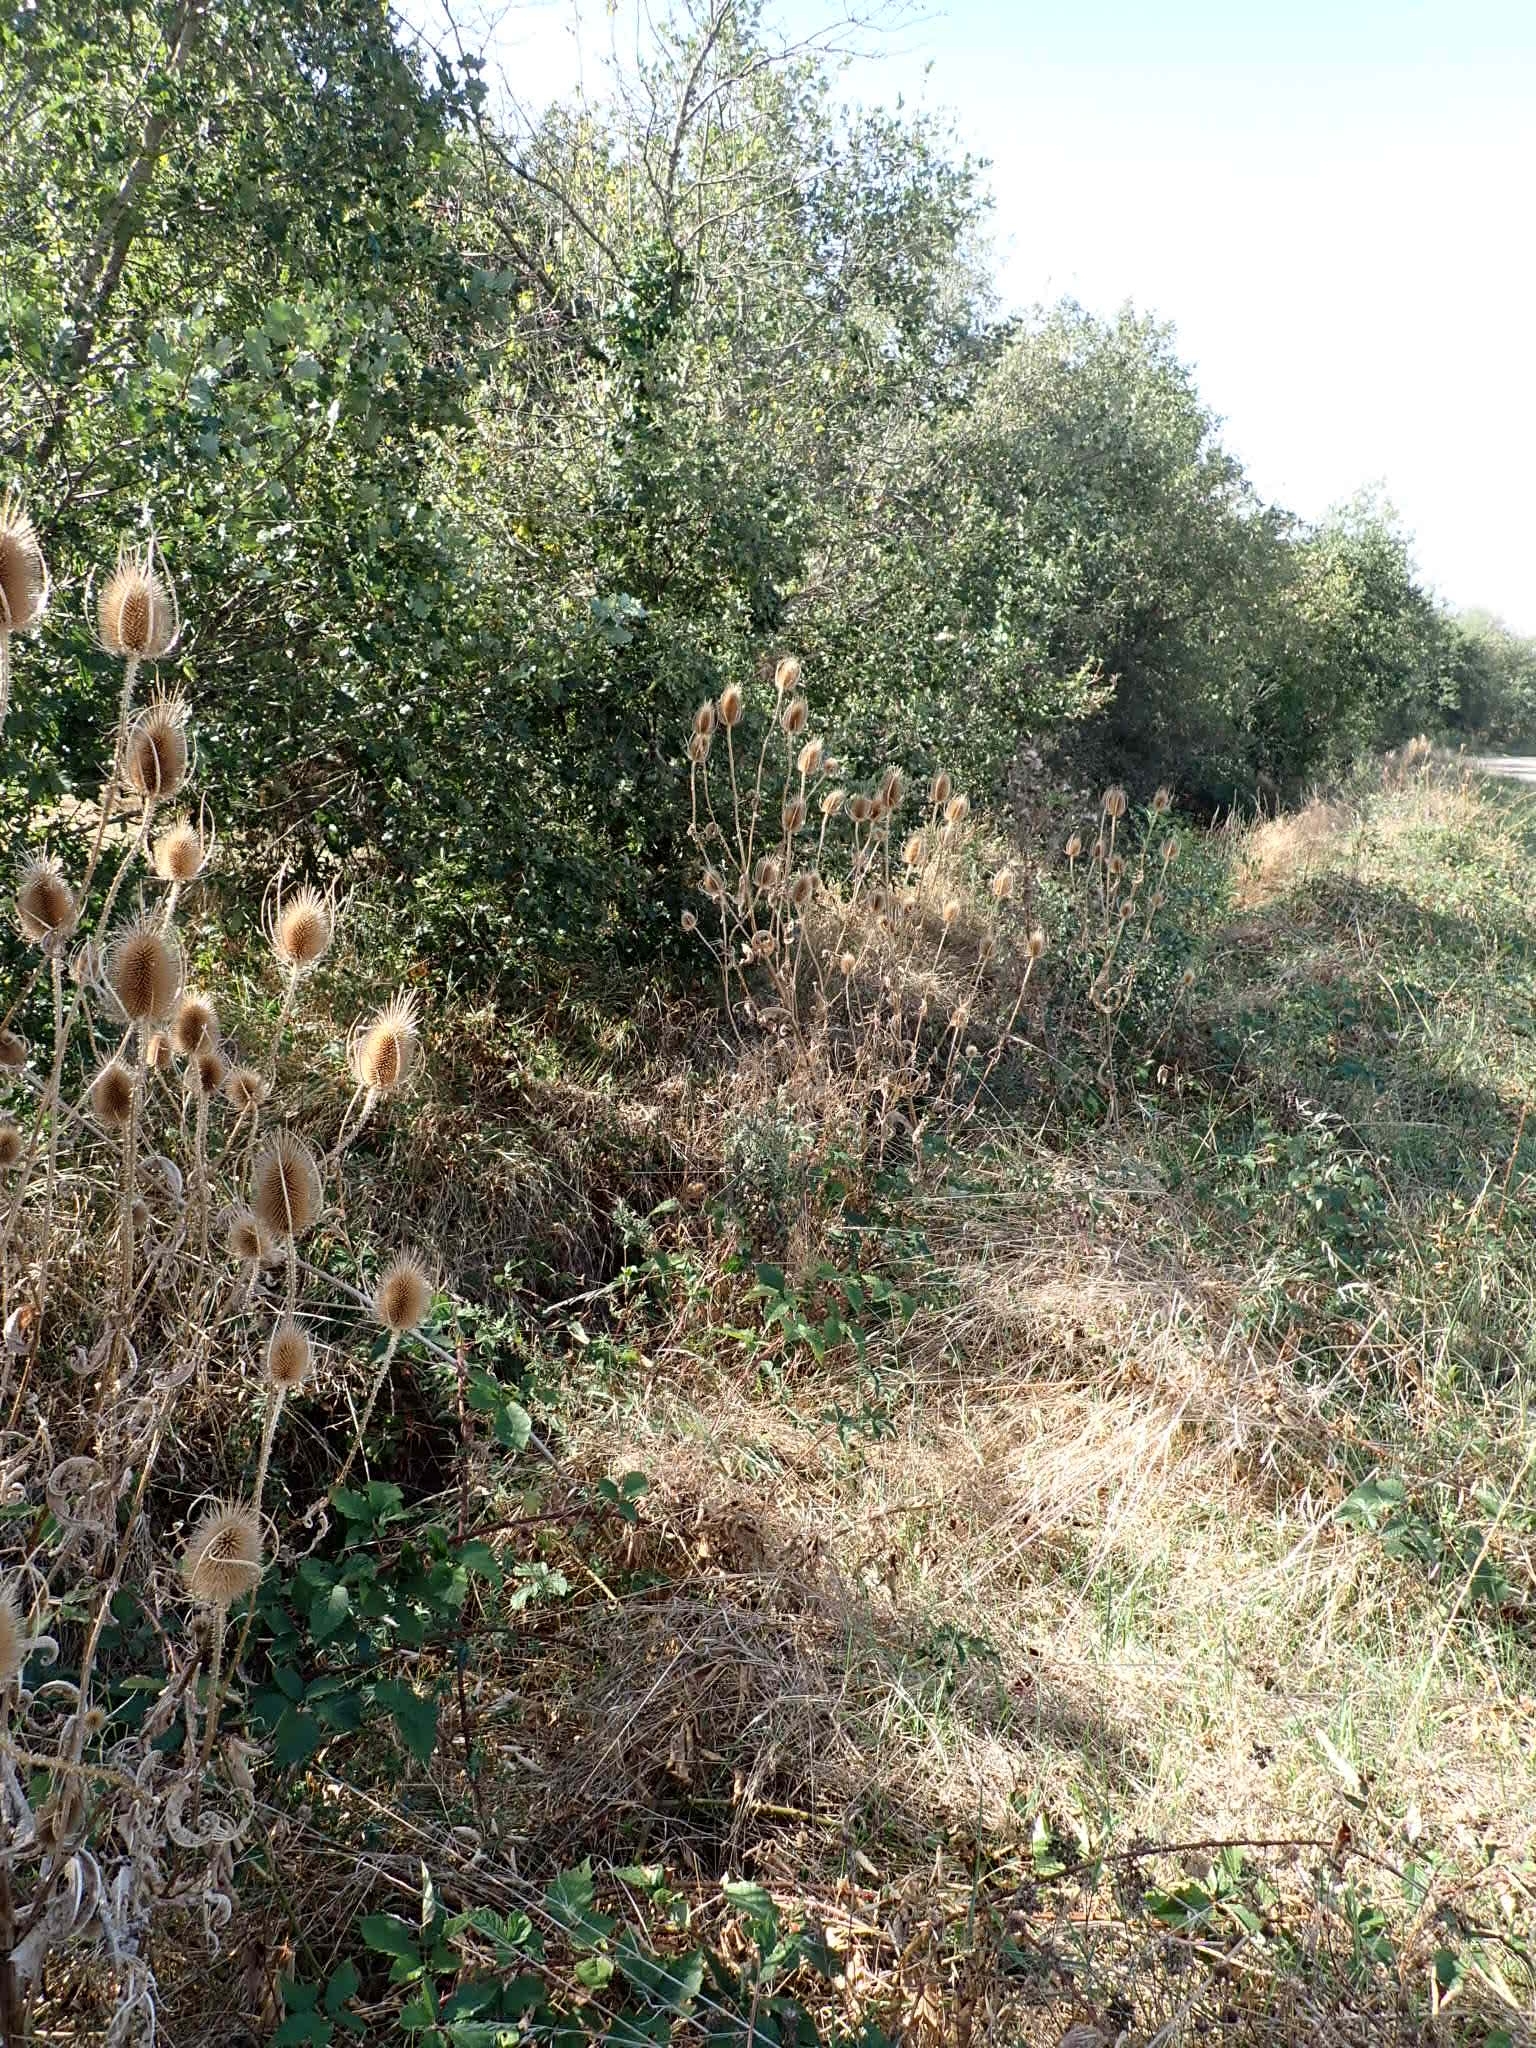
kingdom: Plantae
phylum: Tracheophyta
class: Magnoliopsida
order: Dipsacales
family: Caprifoliaceae
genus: Dipsacus
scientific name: Dipsacus fullonum
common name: Teasel
